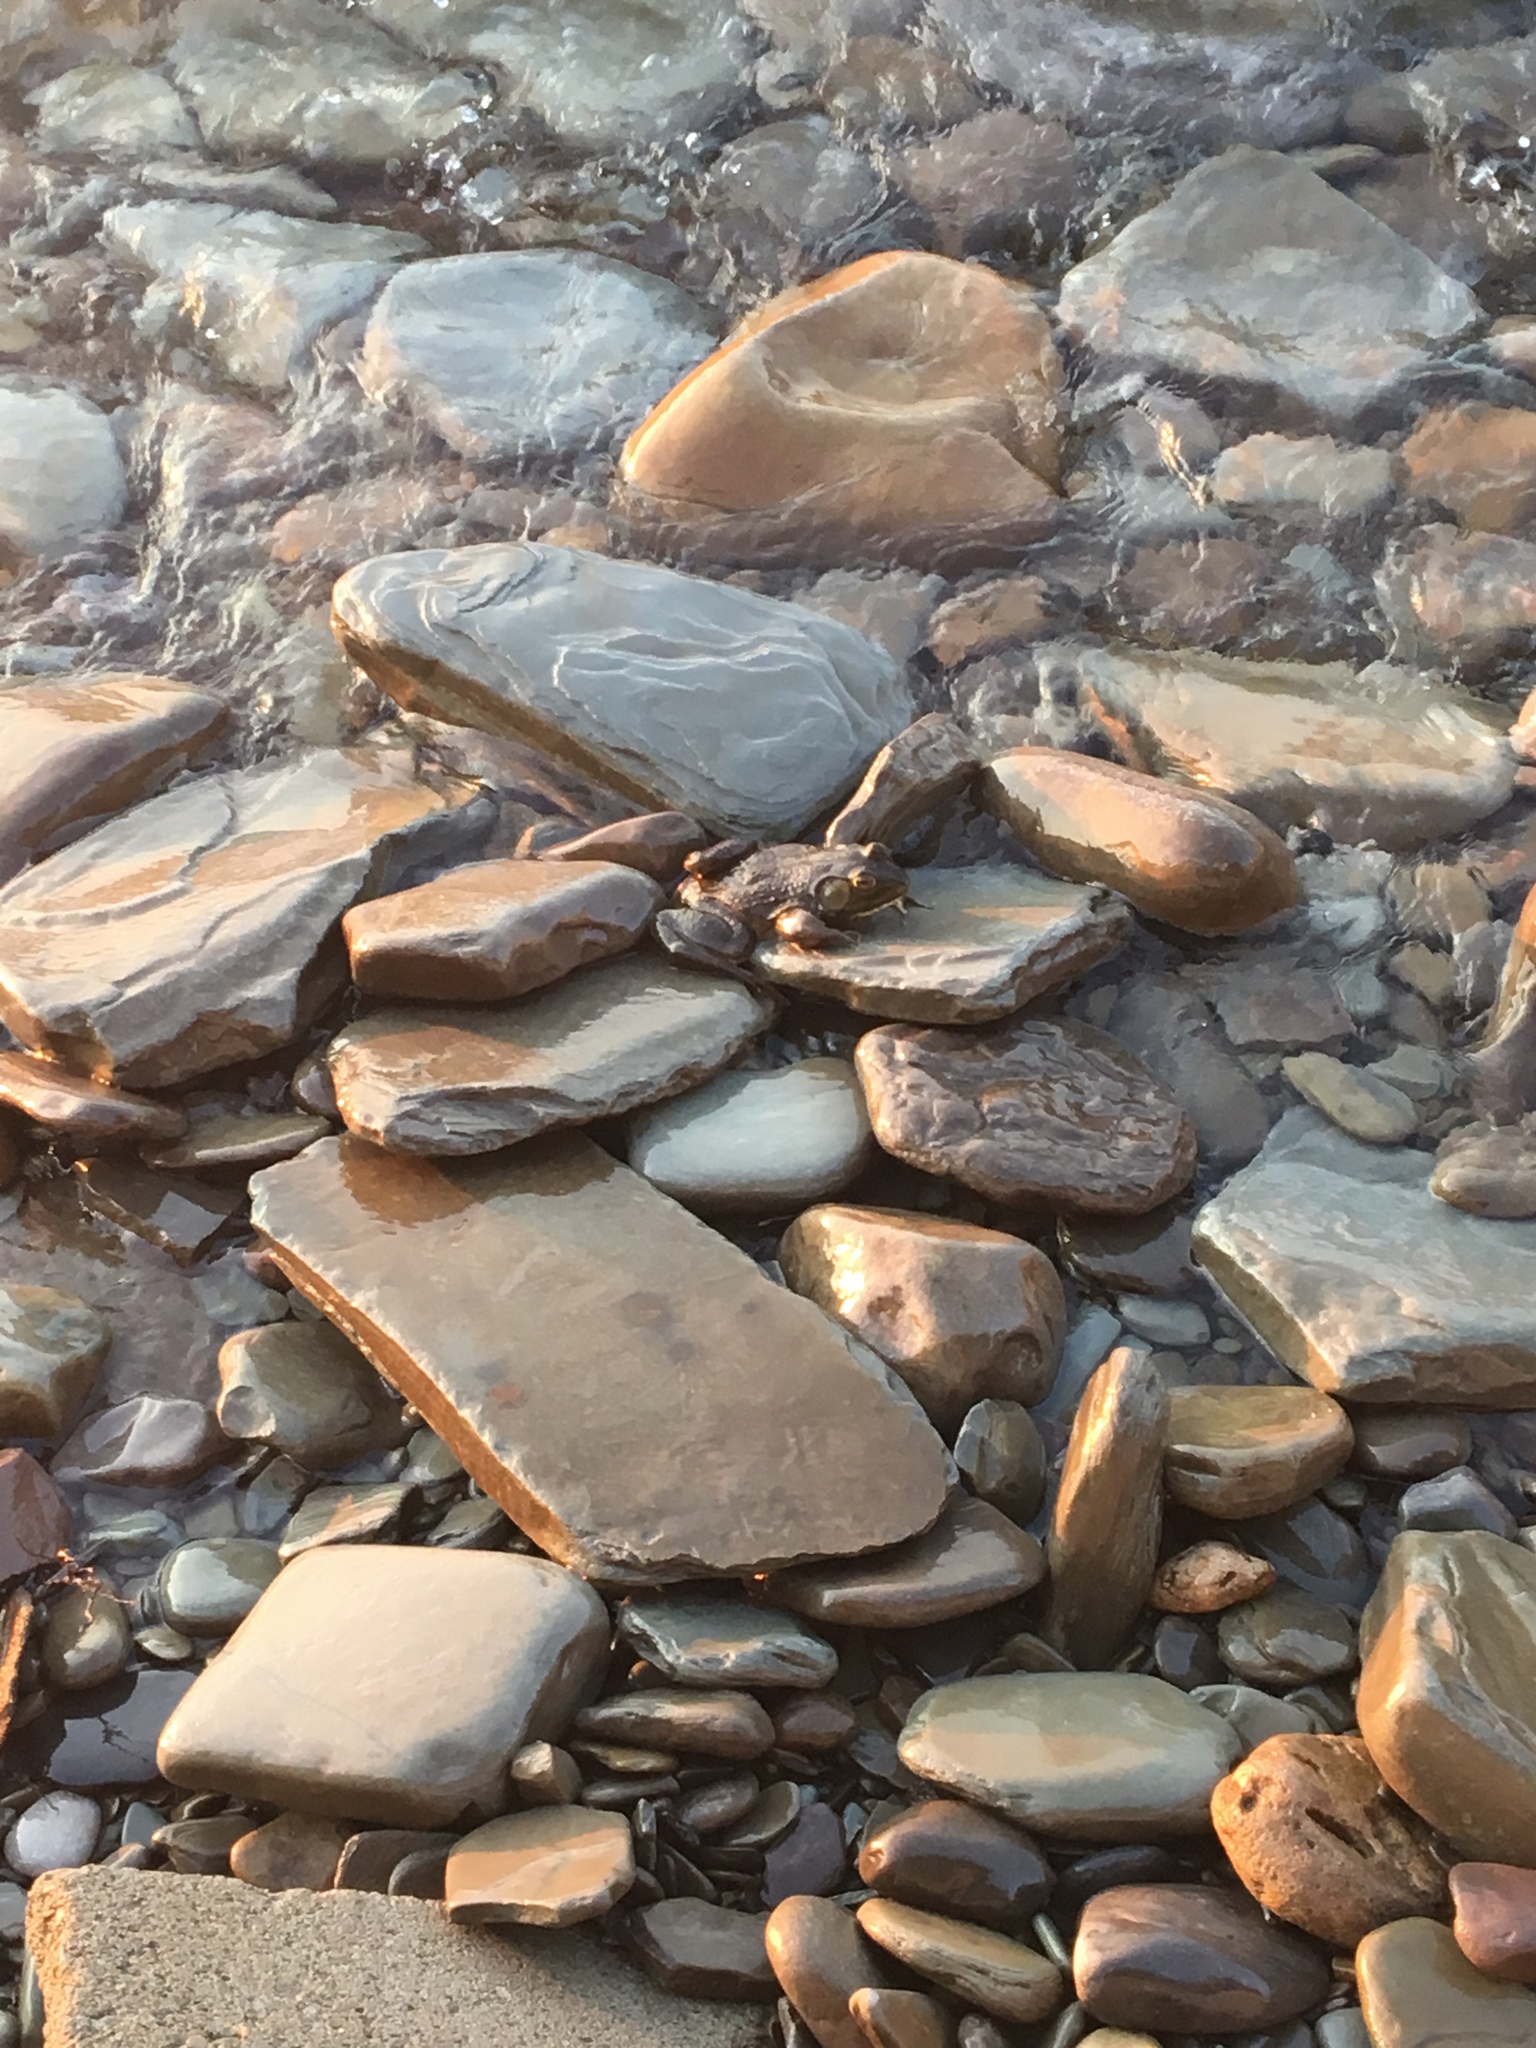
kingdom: Animalia
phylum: Chordata
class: Amphibia
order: Anura
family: Ranidae
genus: Lithobates
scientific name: Lithobates catesbeianus
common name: American bullfrog
